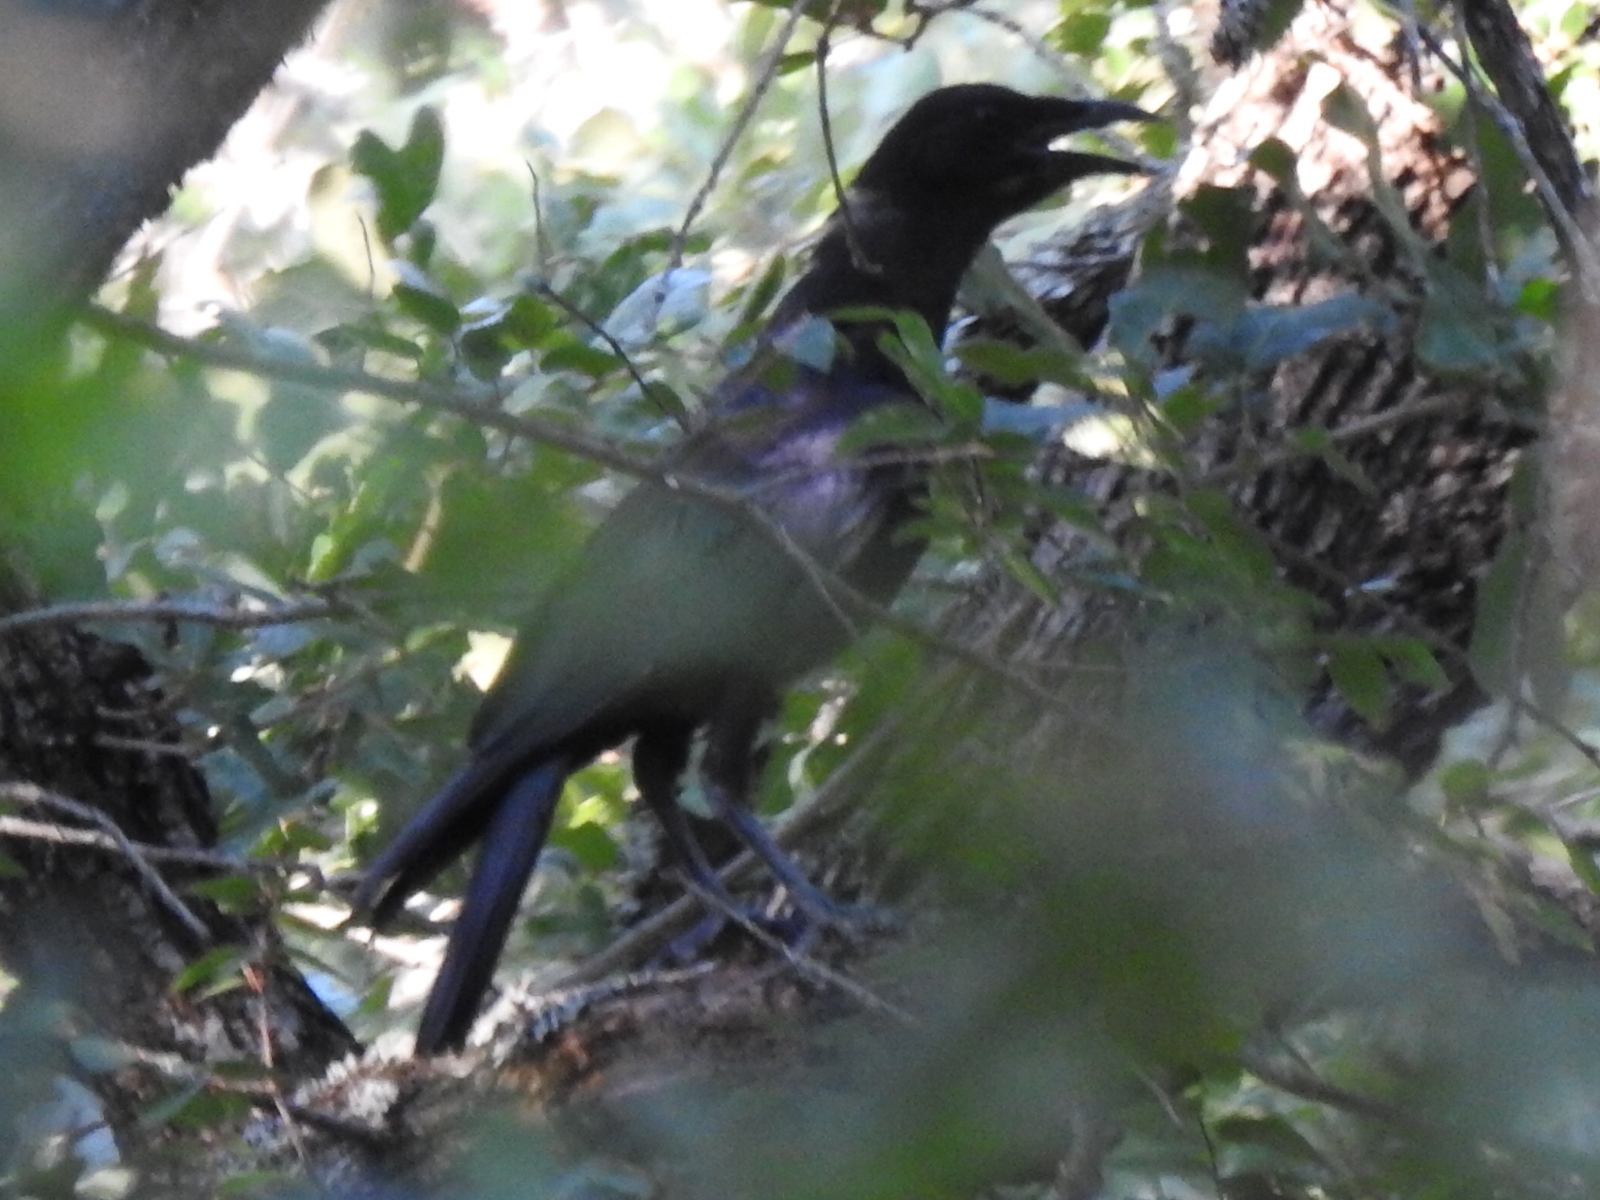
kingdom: Animalia
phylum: Chordata
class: Aves
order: Passeriformes
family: Corvidae
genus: Corvus
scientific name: Corvus brachyrhynchos
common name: American crow
